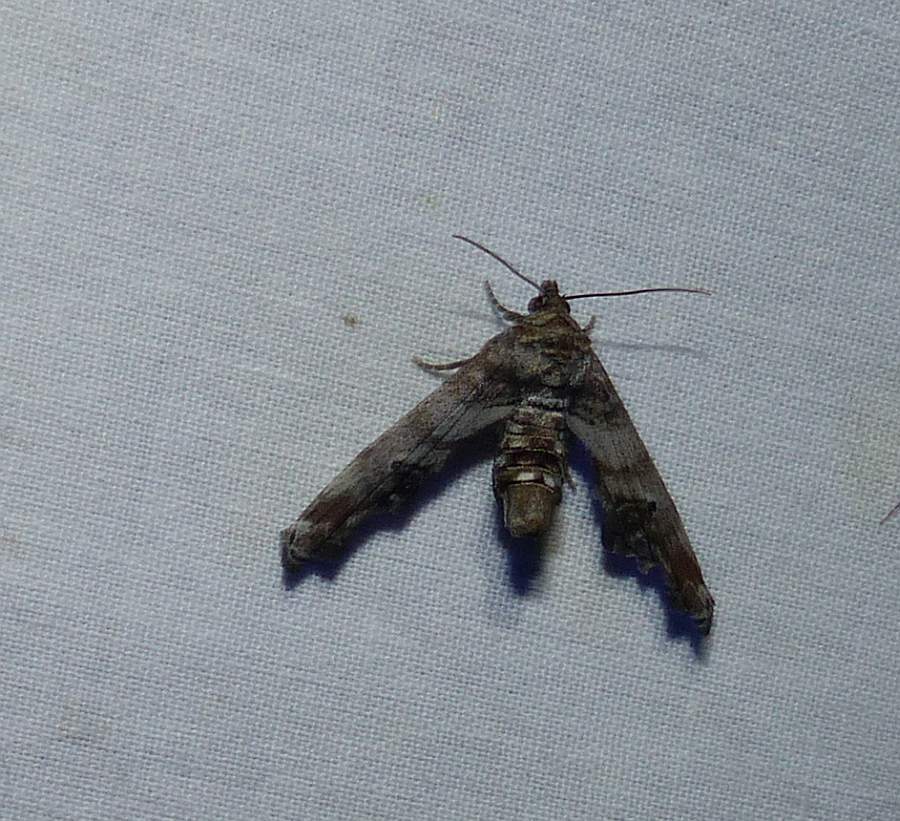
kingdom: Animalia
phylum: Arthropoda
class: Insecta
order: Lepidoptera
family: Euteliidae
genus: Marathyssa
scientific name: Marathyssa inficita
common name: Dark marathyssa moth
